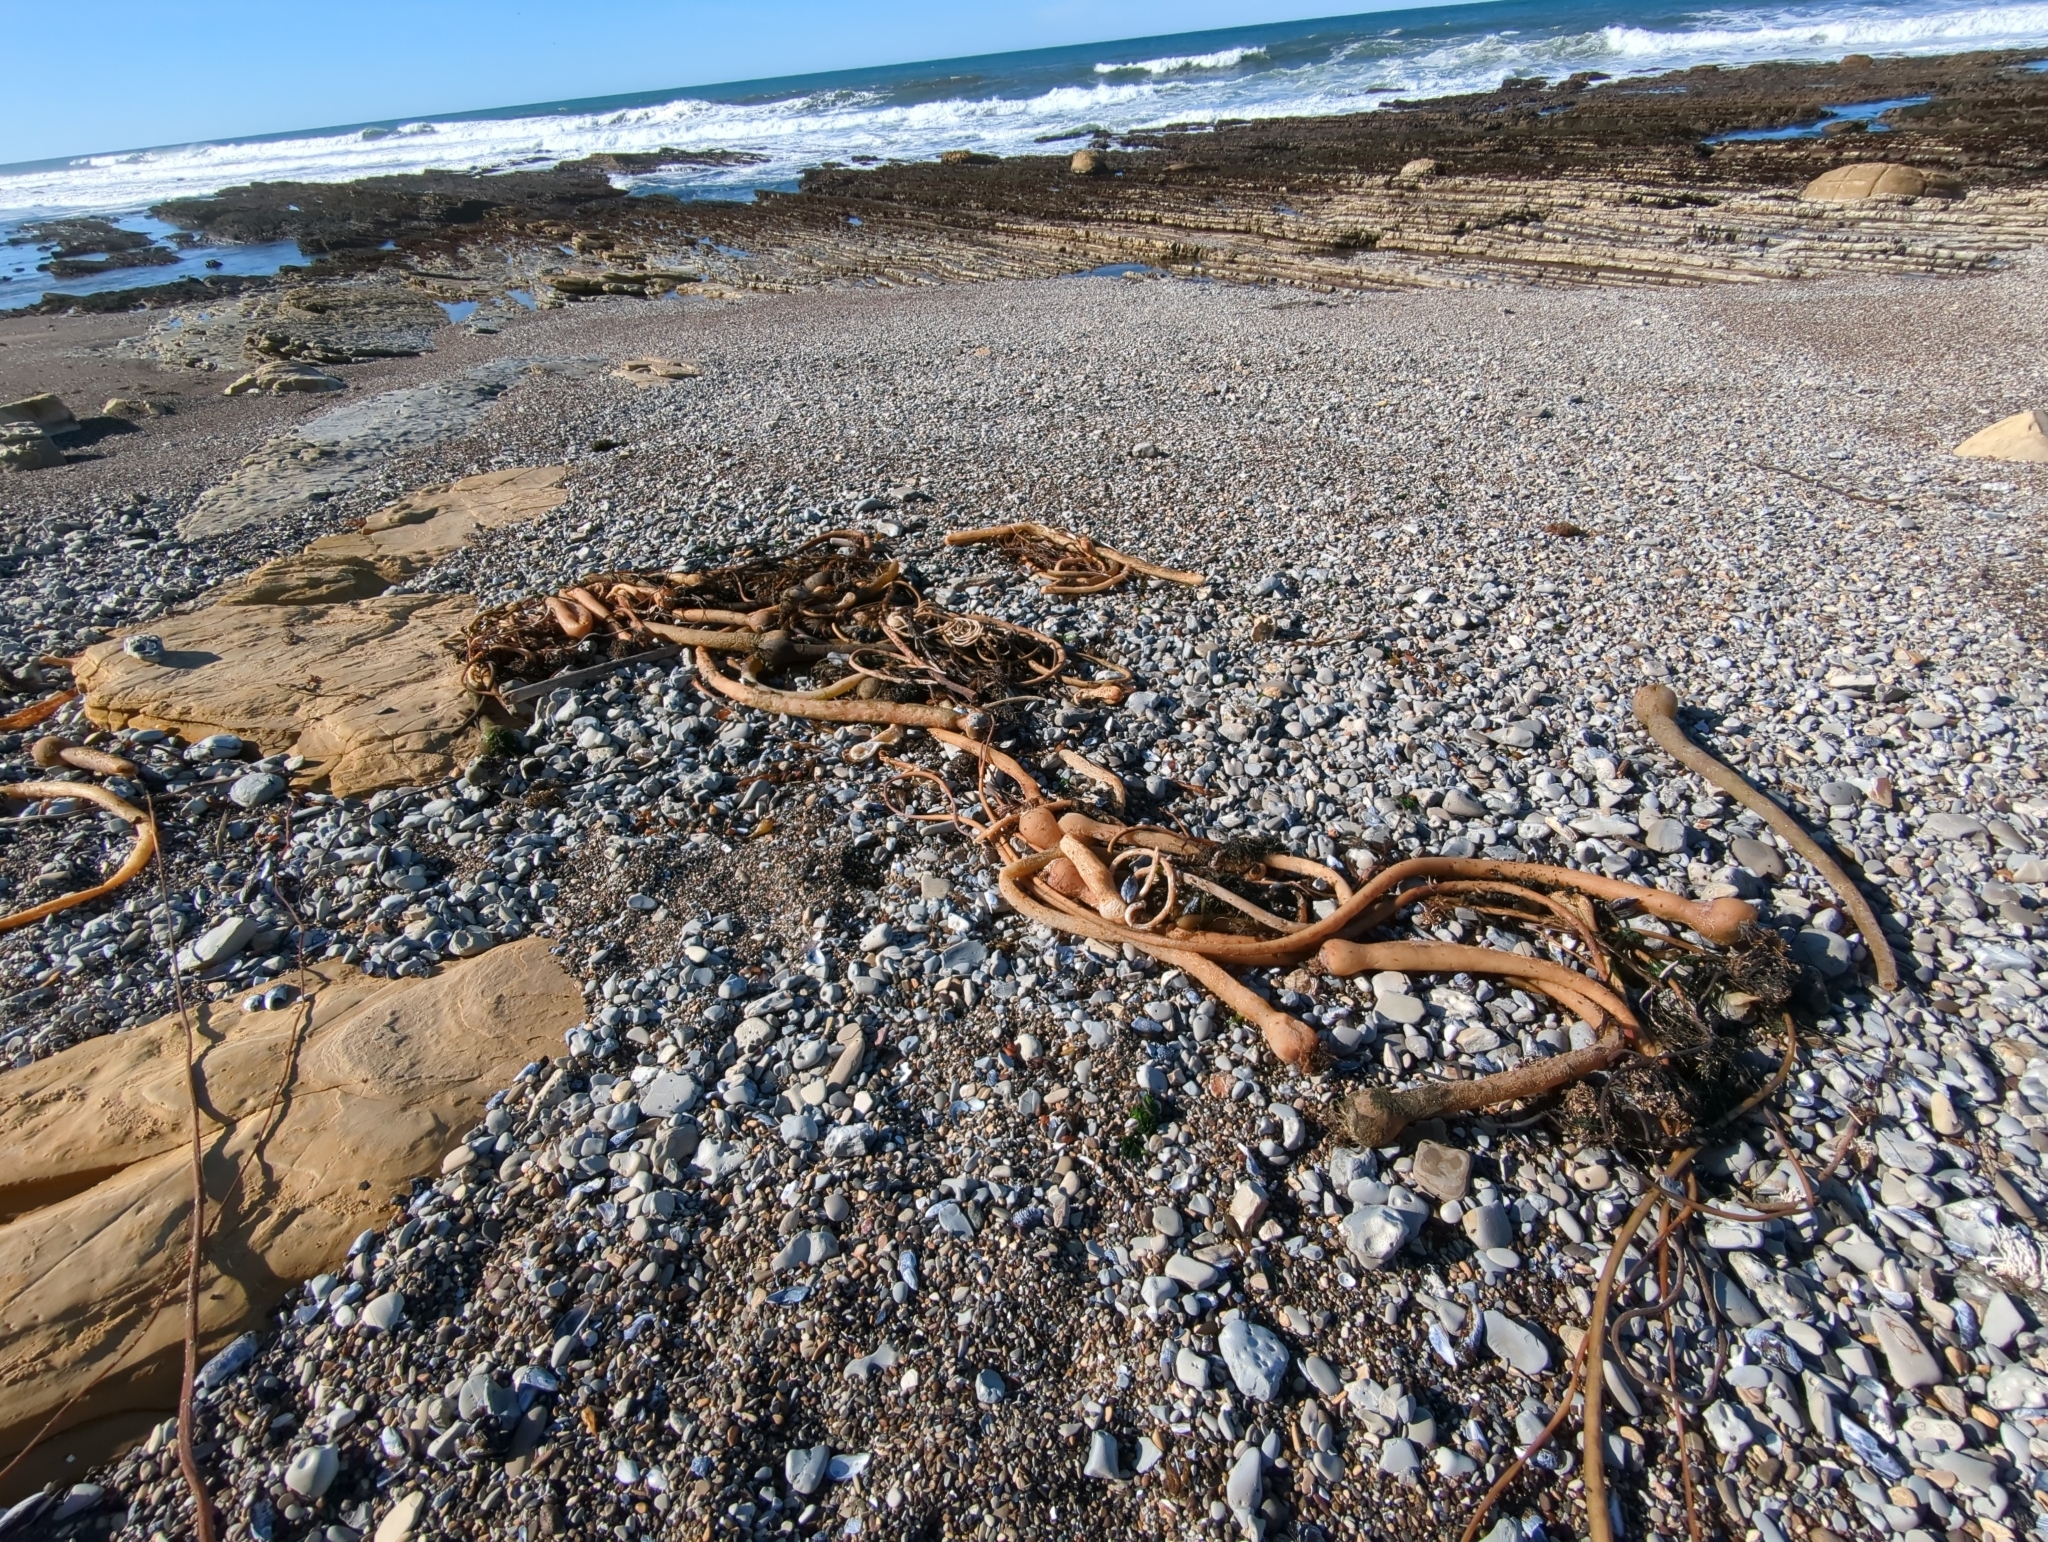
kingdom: Chromista
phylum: Ochrophyta
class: Phaeophyceae
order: Laminariales
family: Laminariaceae
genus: Nereocystis
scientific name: Nereocystis luetkeana
